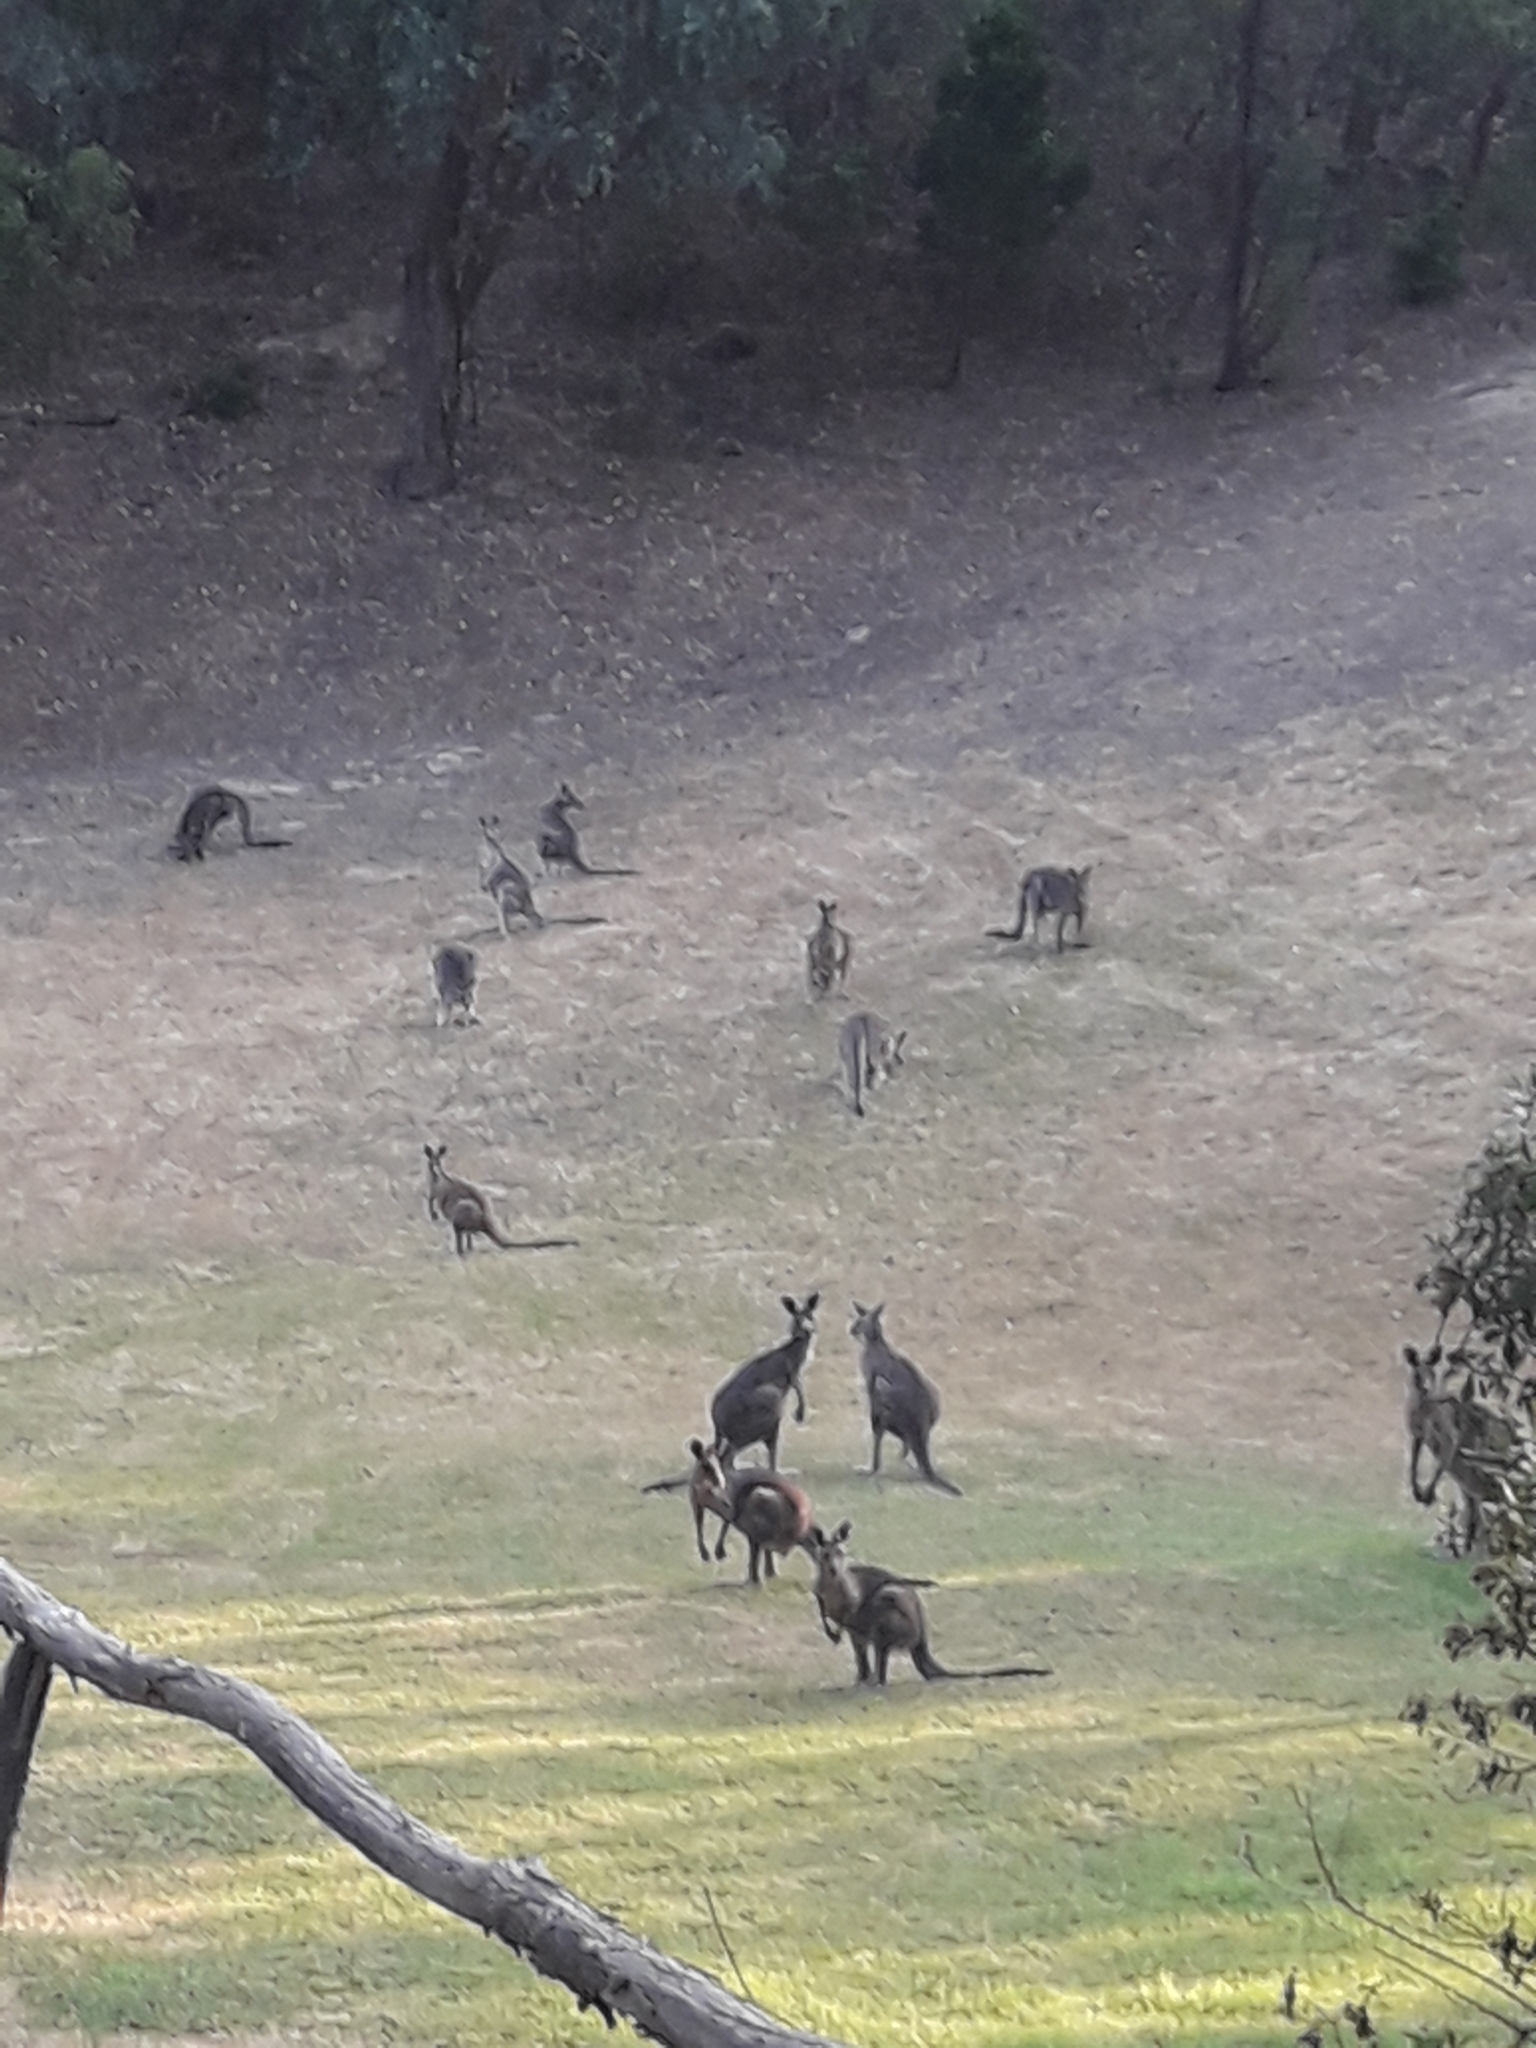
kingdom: Animalia
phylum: Chordata
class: Mammalia
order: Diprotodontia
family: Macropodidae
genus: Macropus
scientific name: Macropus giganteus
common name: Eastern grey kangaroo
